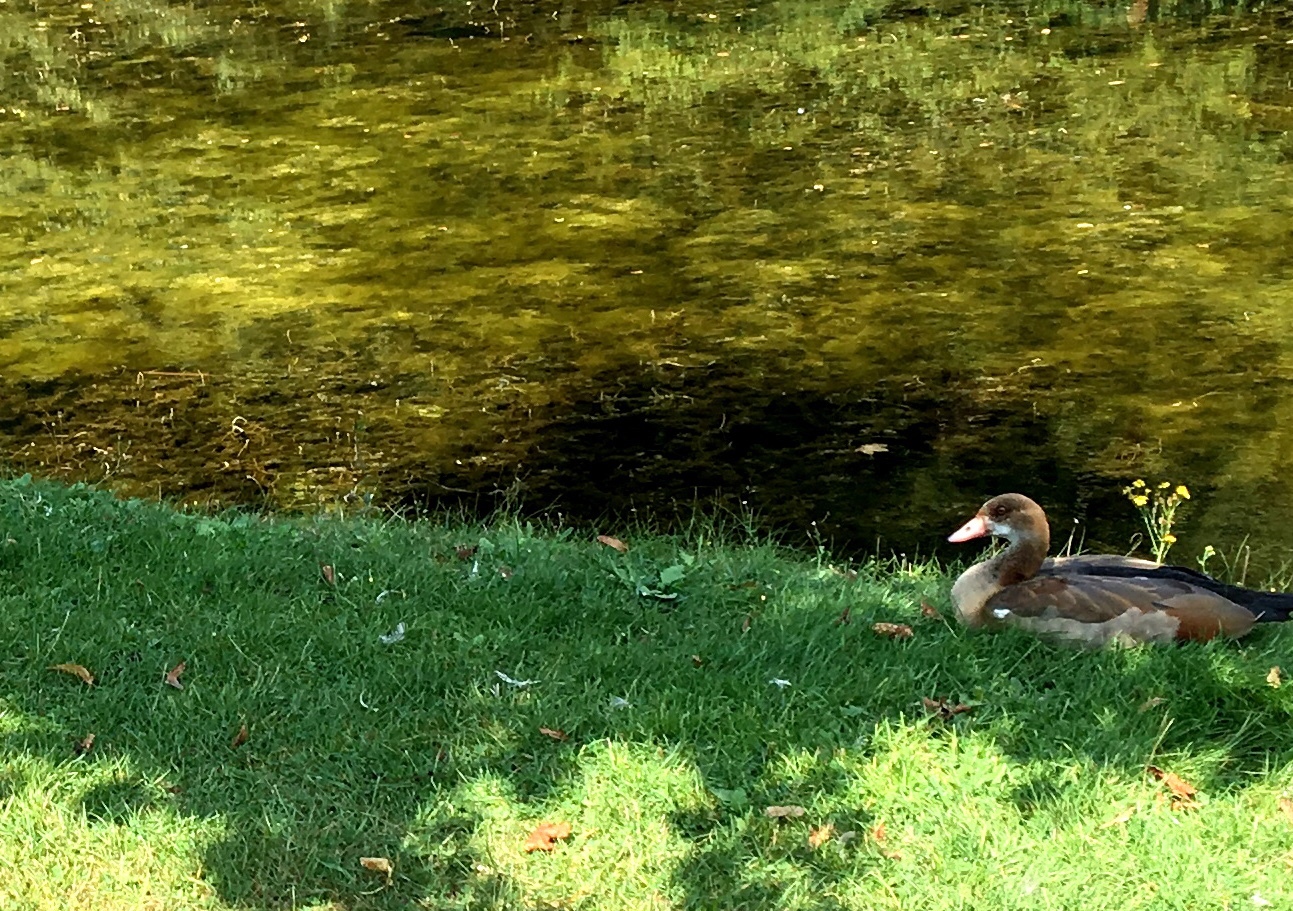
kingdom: Animalia
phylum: Chordata
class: Aves
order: Anseriformes
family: Anatidae
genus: Alopochen
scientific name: Alopochen aegyptiaca
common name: Egyptian goose
